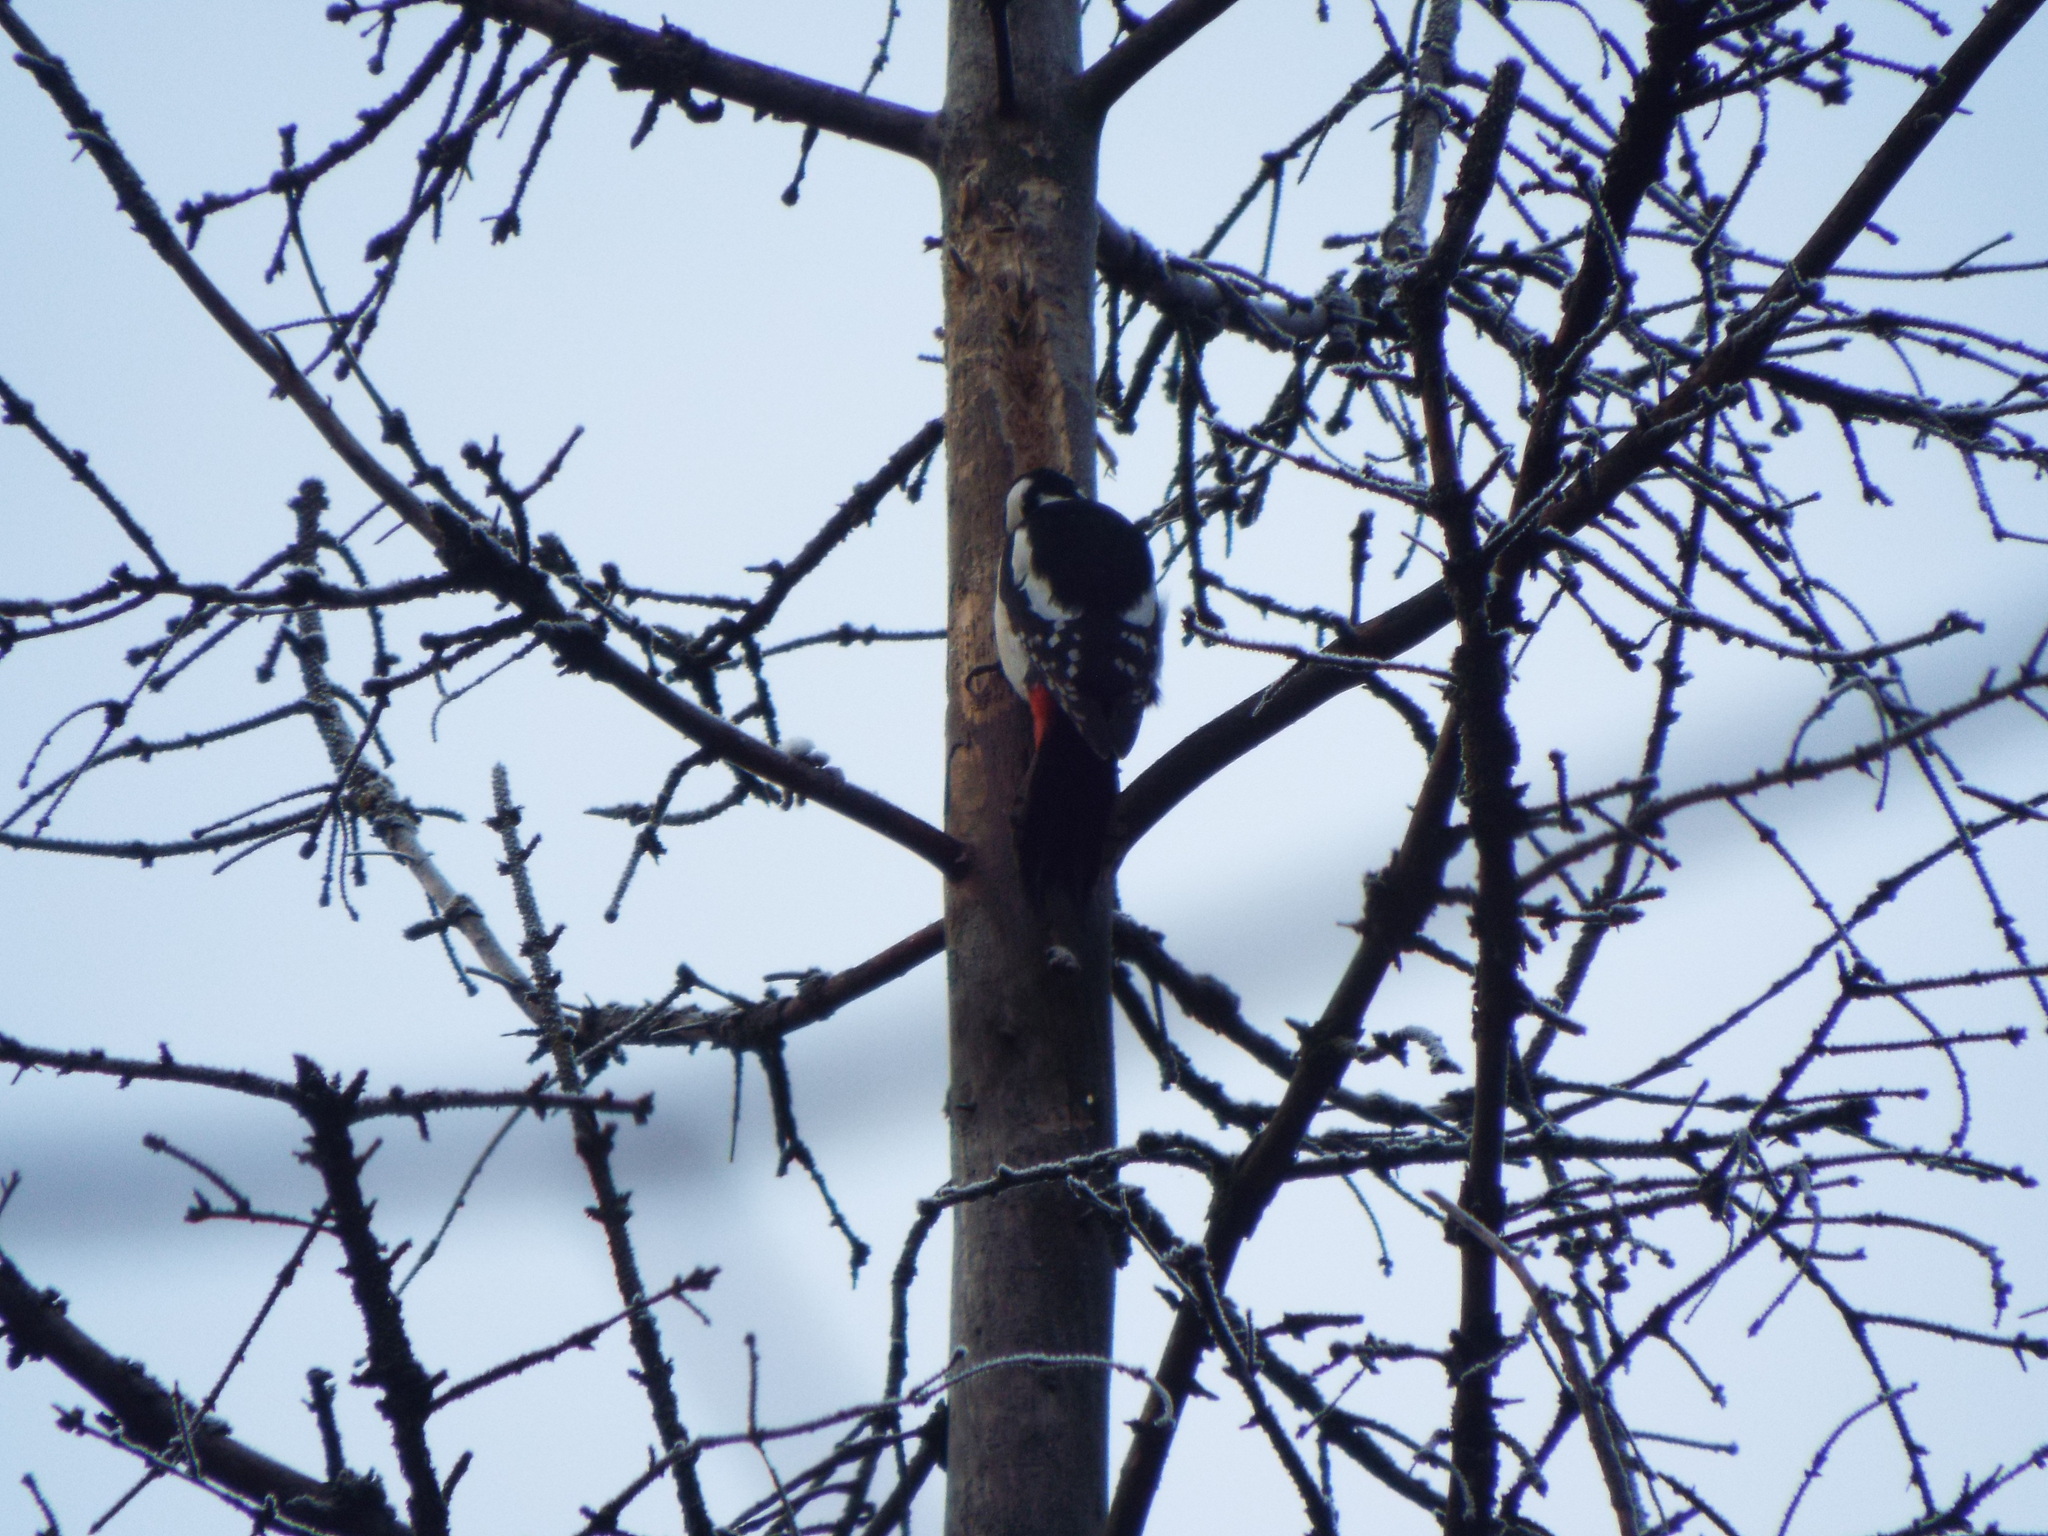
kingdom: Animalia
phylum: Chordata
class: Aves
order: Piciformes
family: Picidae
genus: Dendrocopos
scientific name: Dendrocopos major
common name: Great spotted woodpecker
